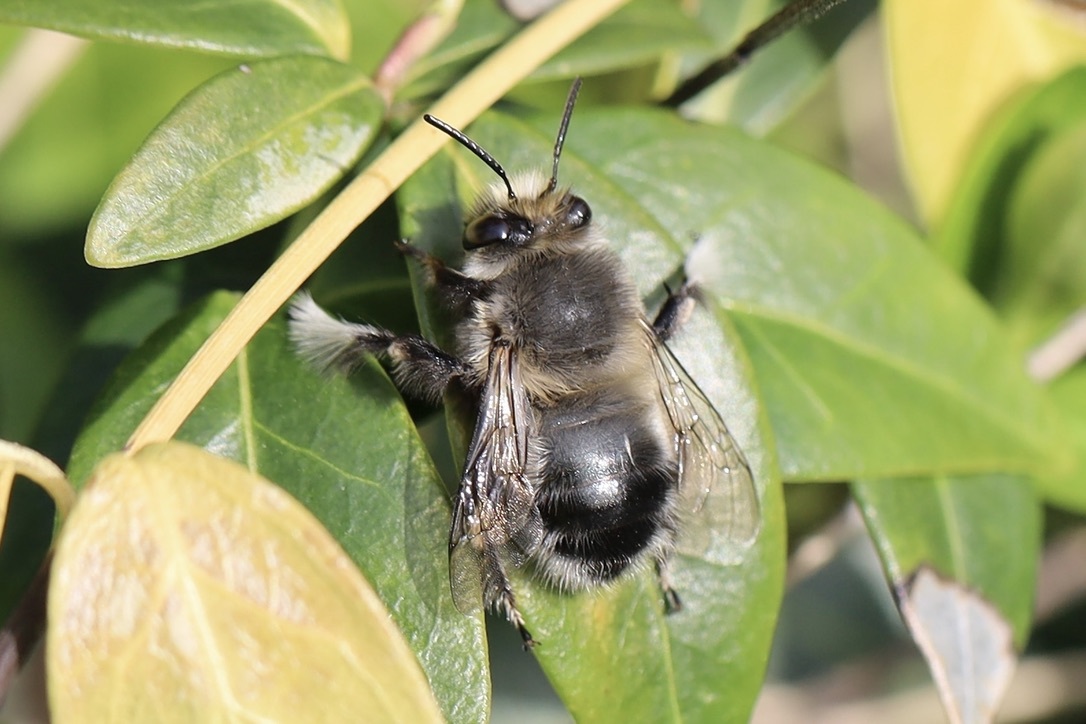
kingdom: Animalia
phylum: Arthropoda
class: Insecta
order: Hymenoptera
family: Apidae
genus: Anthophora
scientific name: Anthophora pacifica
